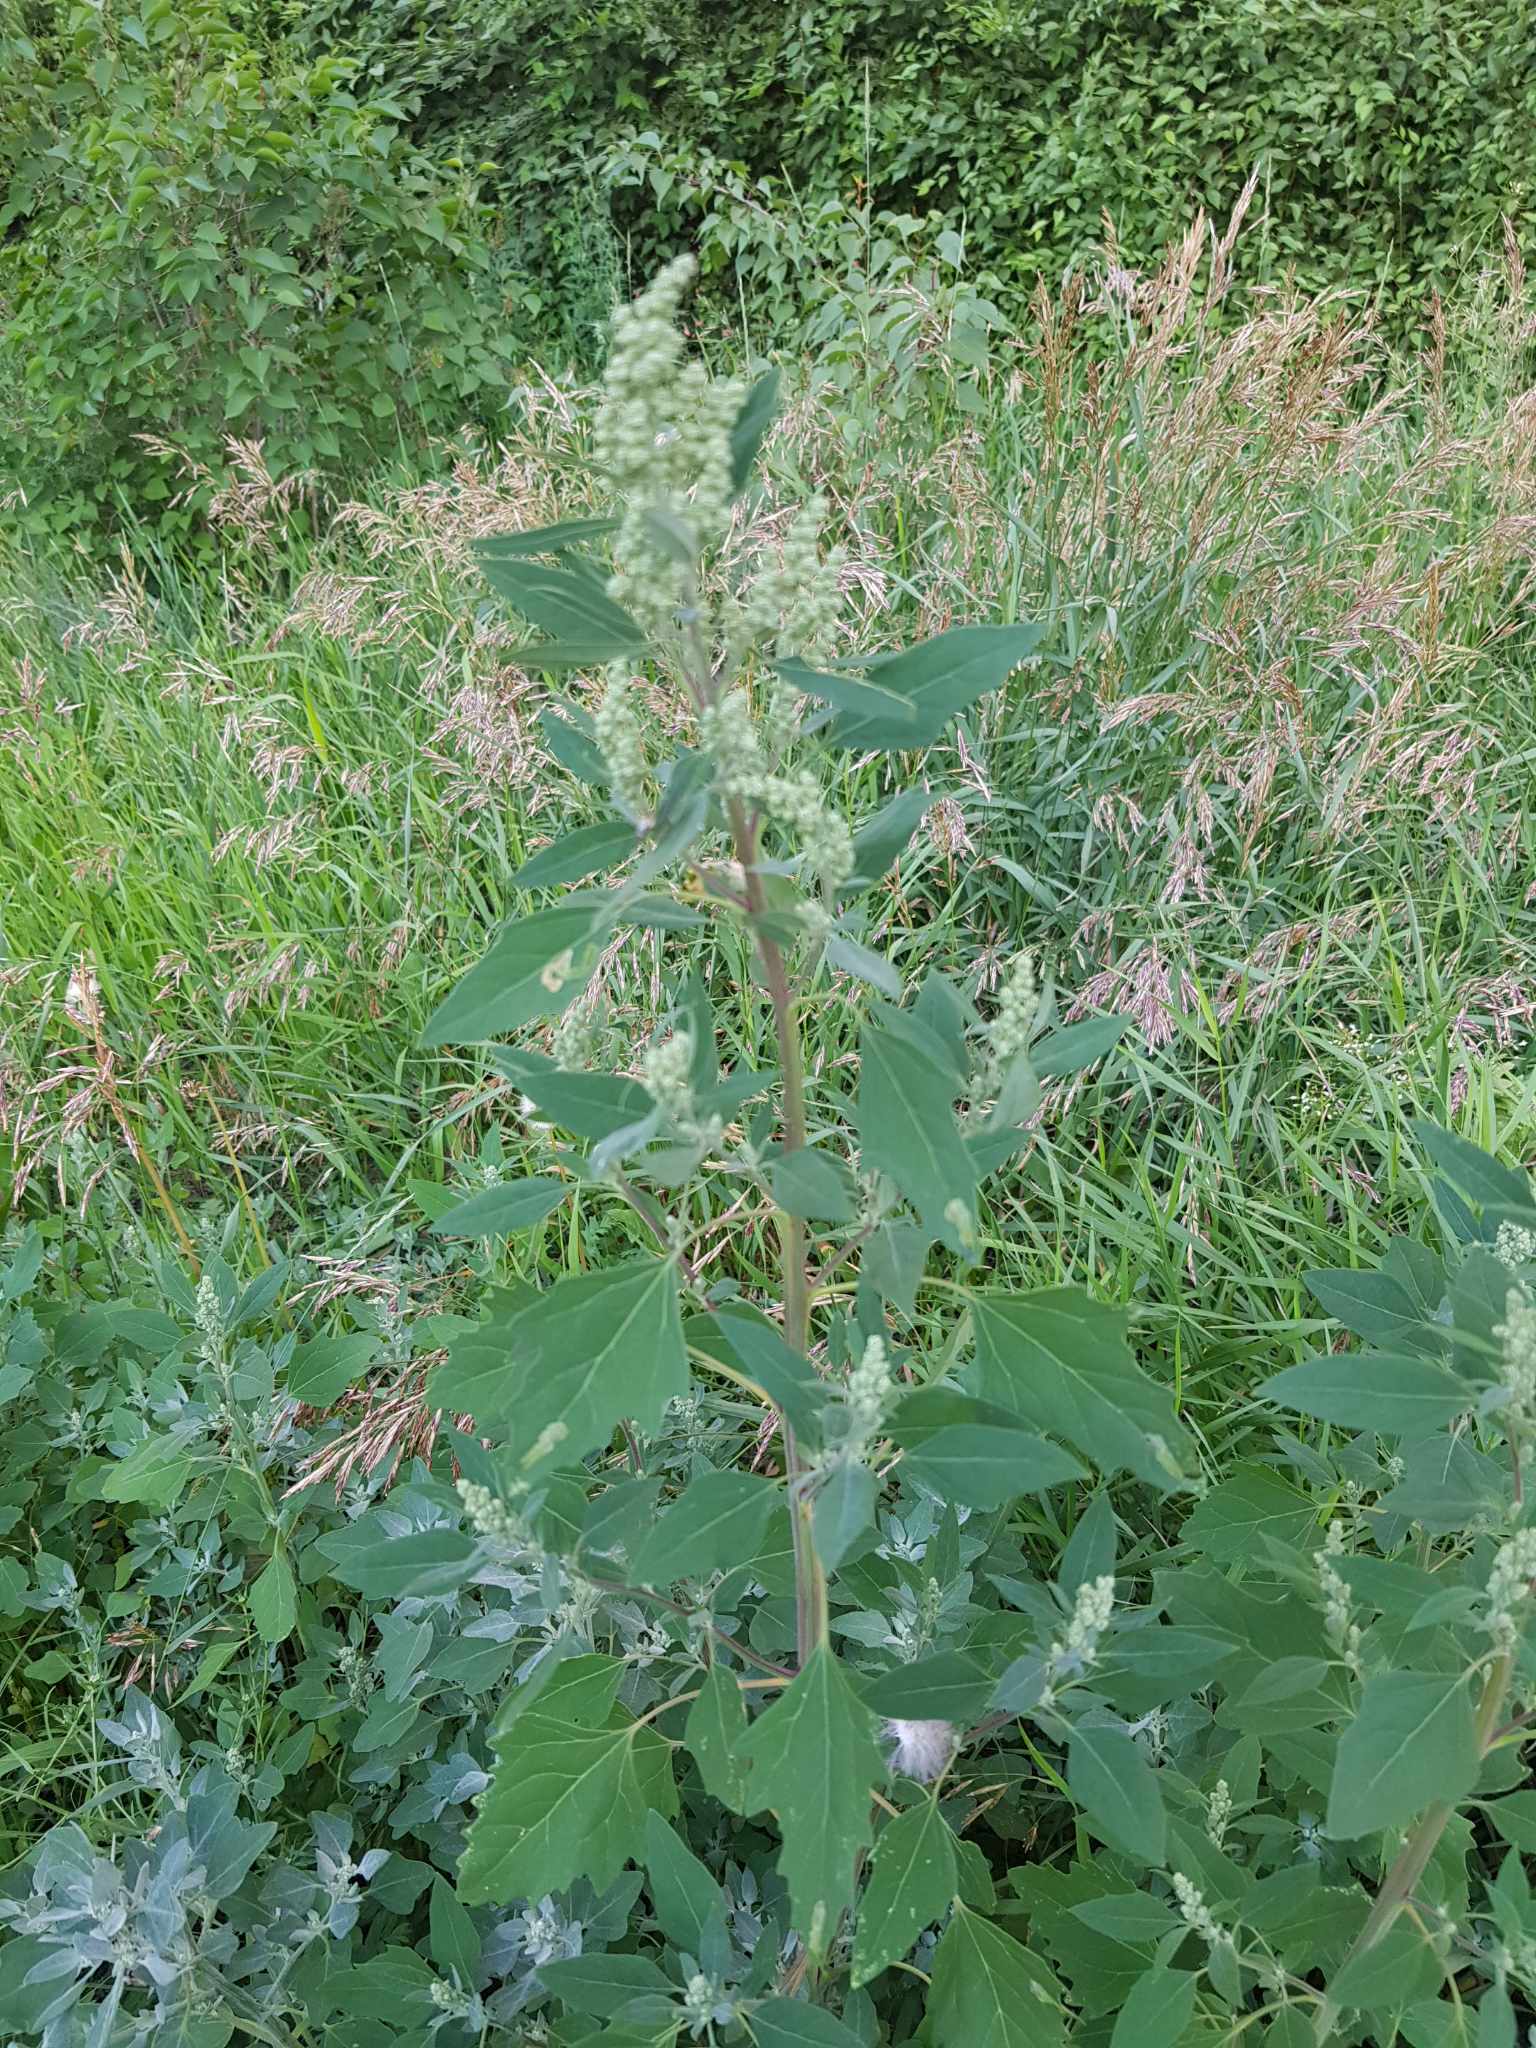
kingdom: Plantae
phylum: Tracheophyta
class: Magnoliopsida
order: Caryophyllales
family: Amaranthaceae
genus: Chenopodium
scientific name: Chenopodium album
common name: Fat-hen
